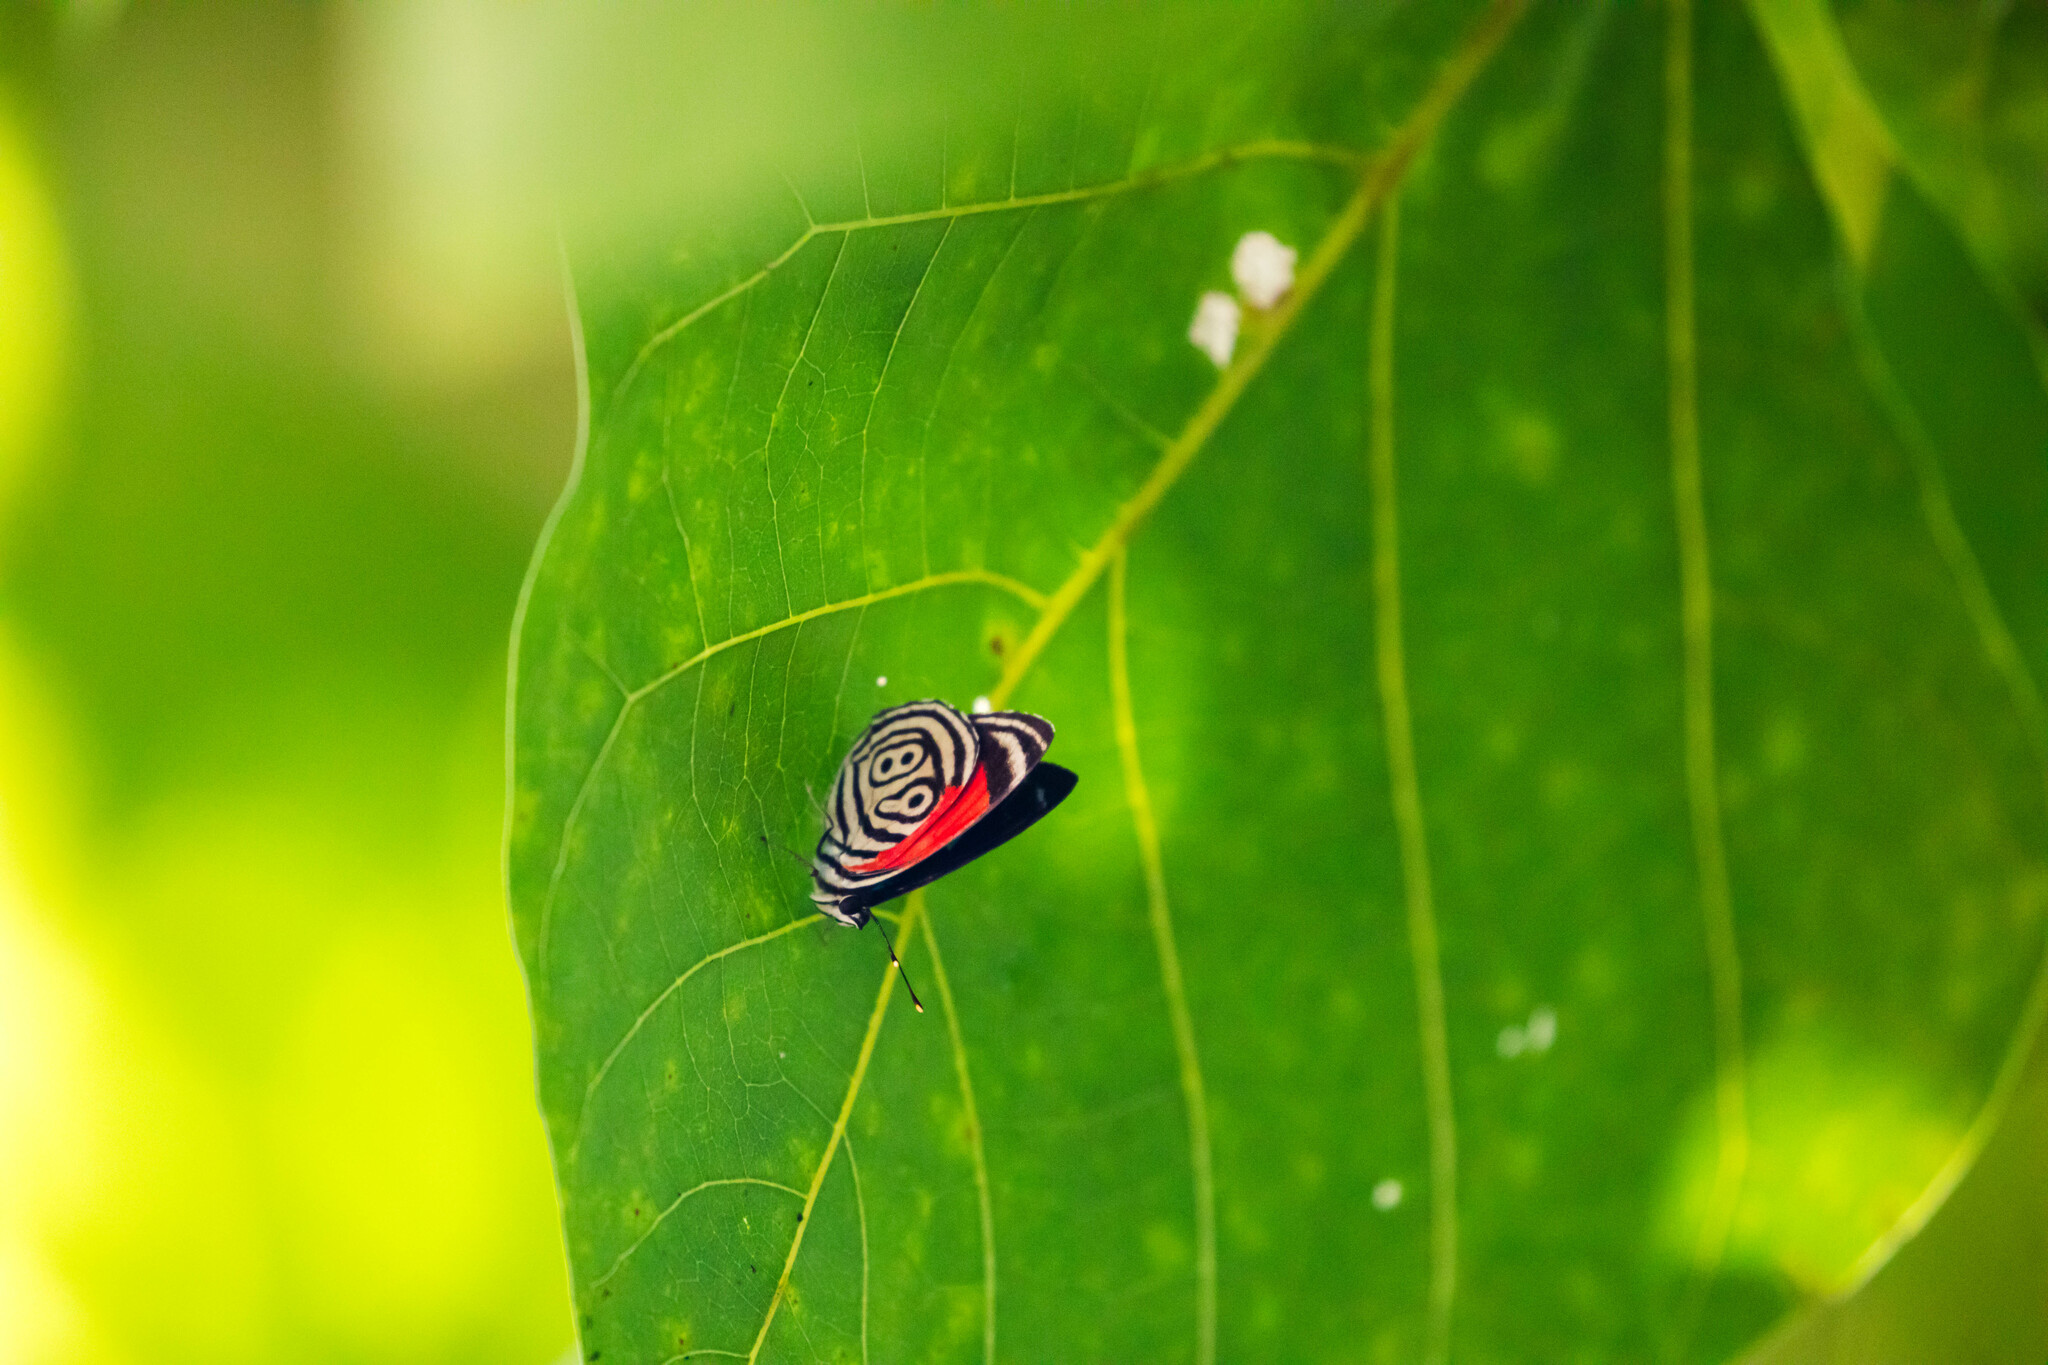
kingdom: Animalia
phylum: Arthropoda
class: Insecta
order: Lepidoptera
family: Nymphalidae
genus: Diaethria
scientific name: Diaethria clymena
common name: Widespread eighty-eight
